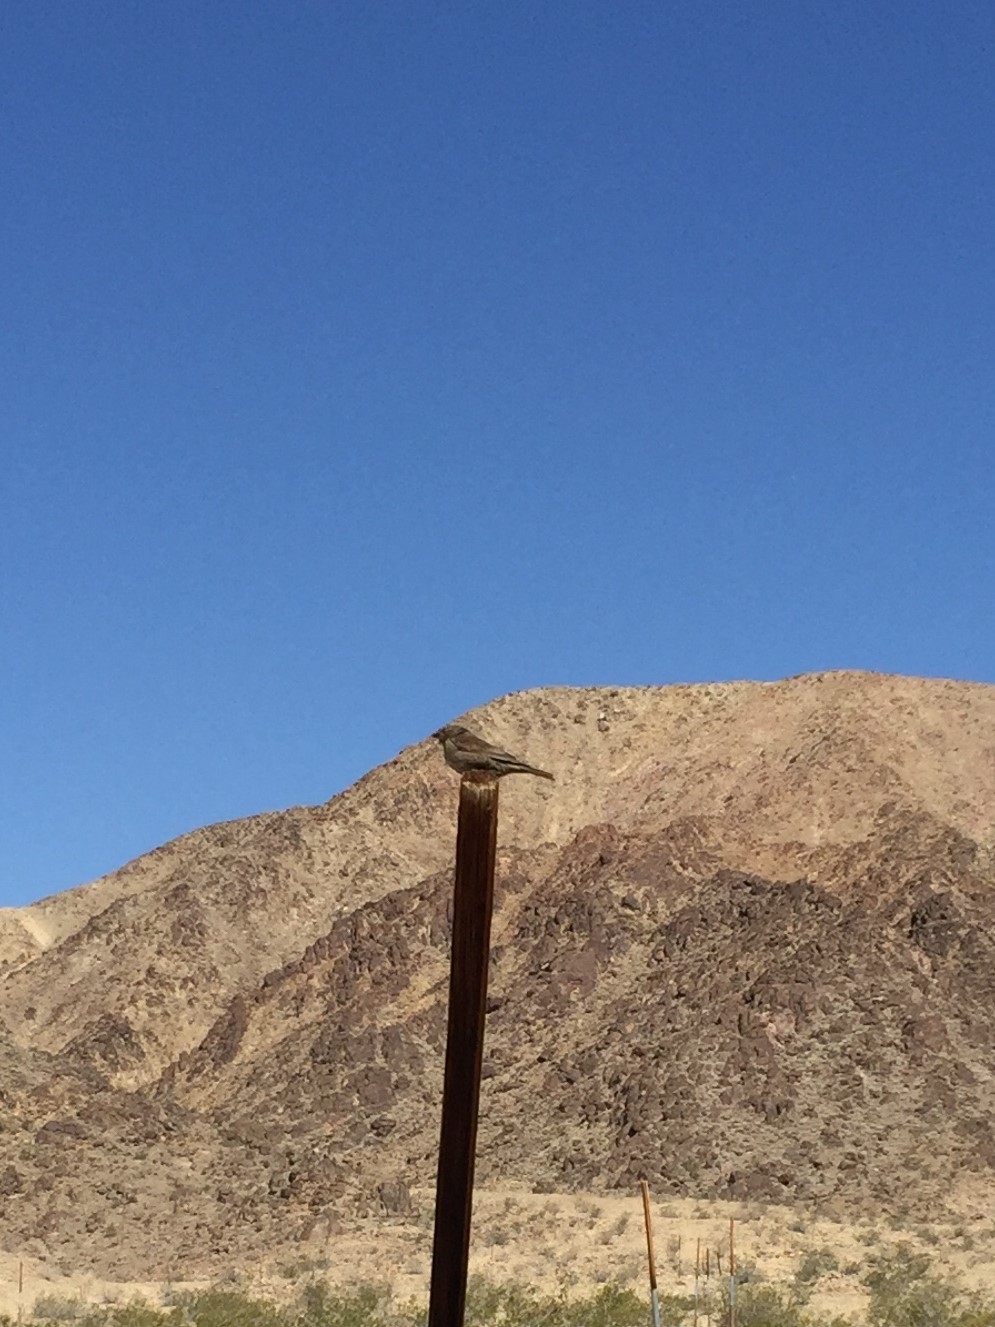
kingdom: Animalia
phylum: Chordata
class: Aves
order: Passeriformes
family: Passeridae
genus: Passer
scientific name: Passer domesticus
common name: House sparrow
